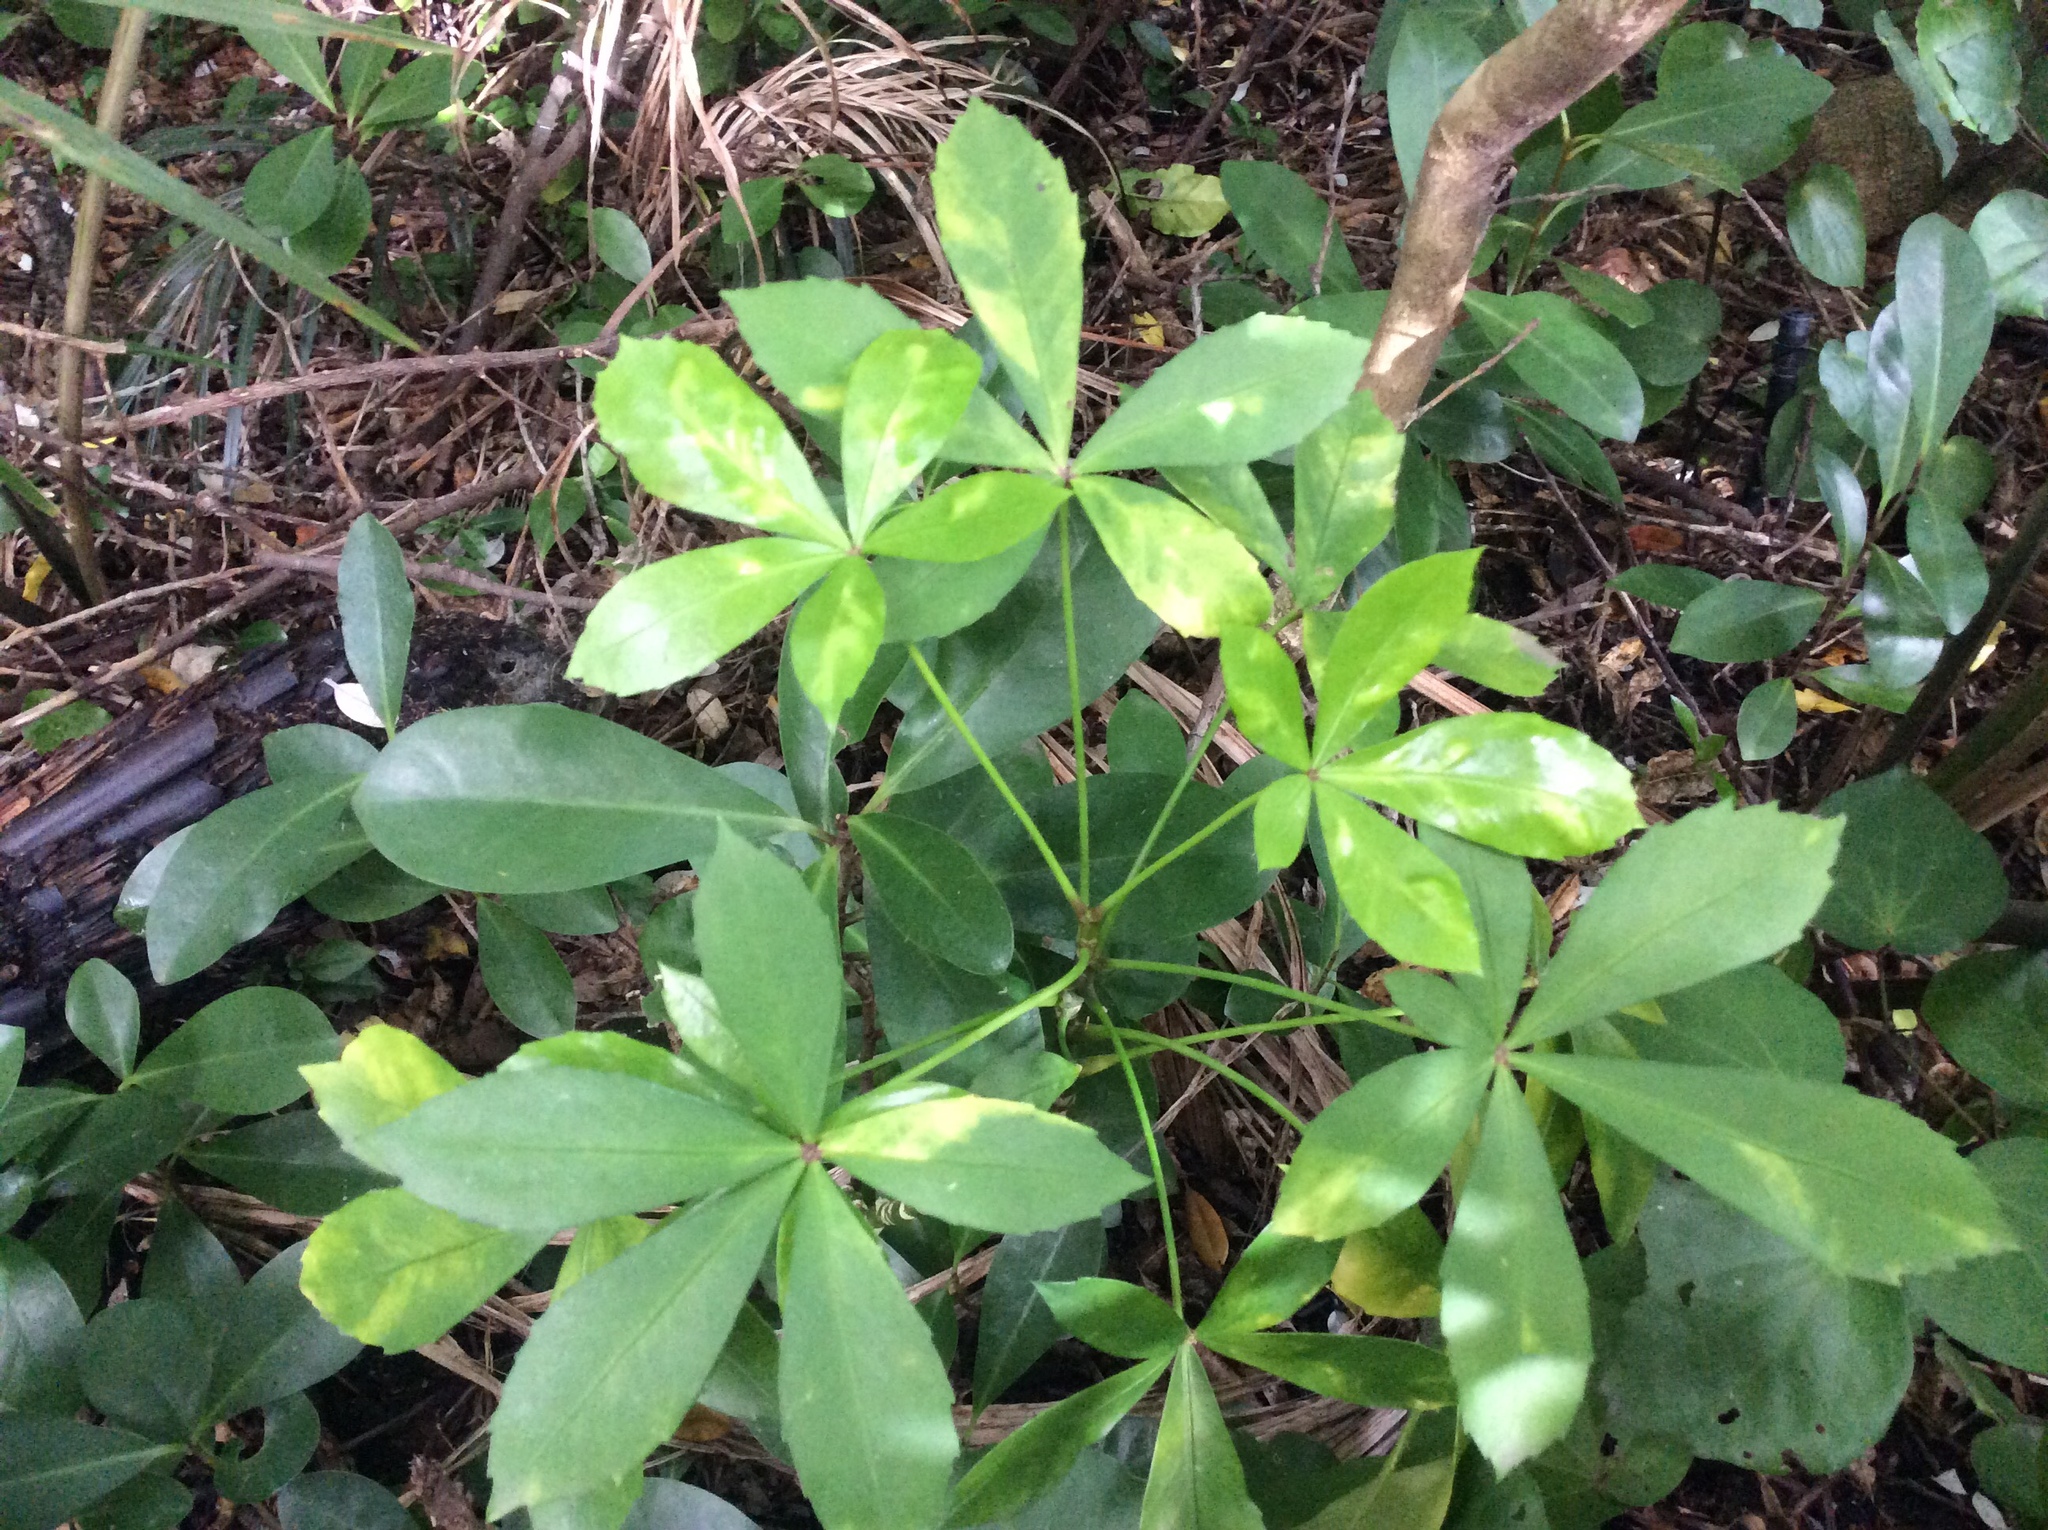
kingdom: Plantae
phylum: Tracheophyta
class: Magnoliopsida
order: Apiales
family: Araliaceae
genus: Pseudopanax
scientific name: Pseudopanax lessonii
